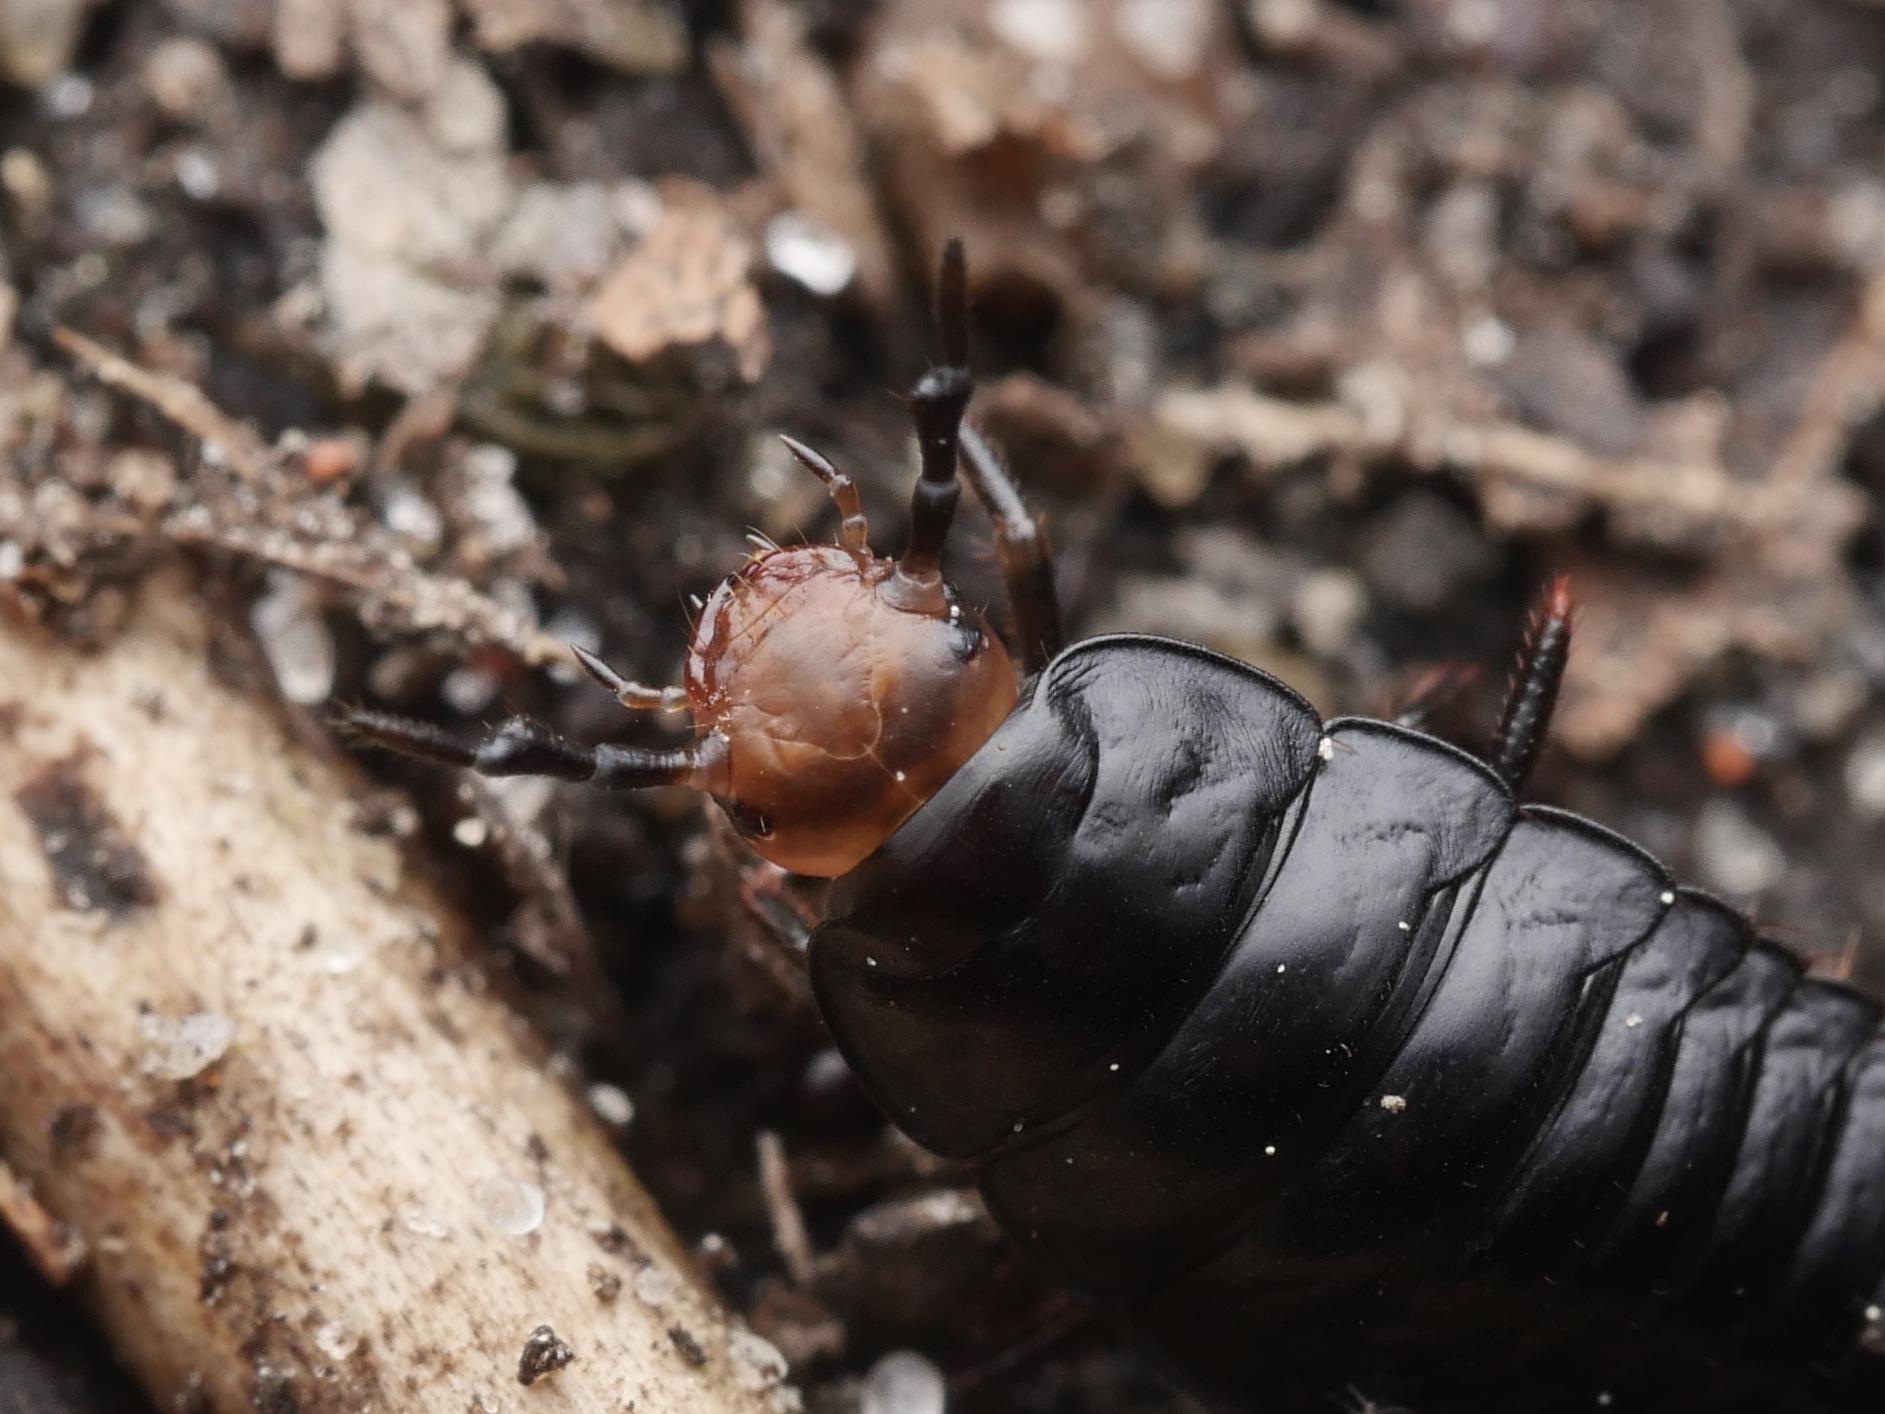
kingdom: Animalia
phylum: Arthropoda
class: Insecta
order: Coleoptera
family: Staphylinidae
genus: Dendroxena
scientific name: Dendroxena quadrimaculata
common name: Carrion beetle
